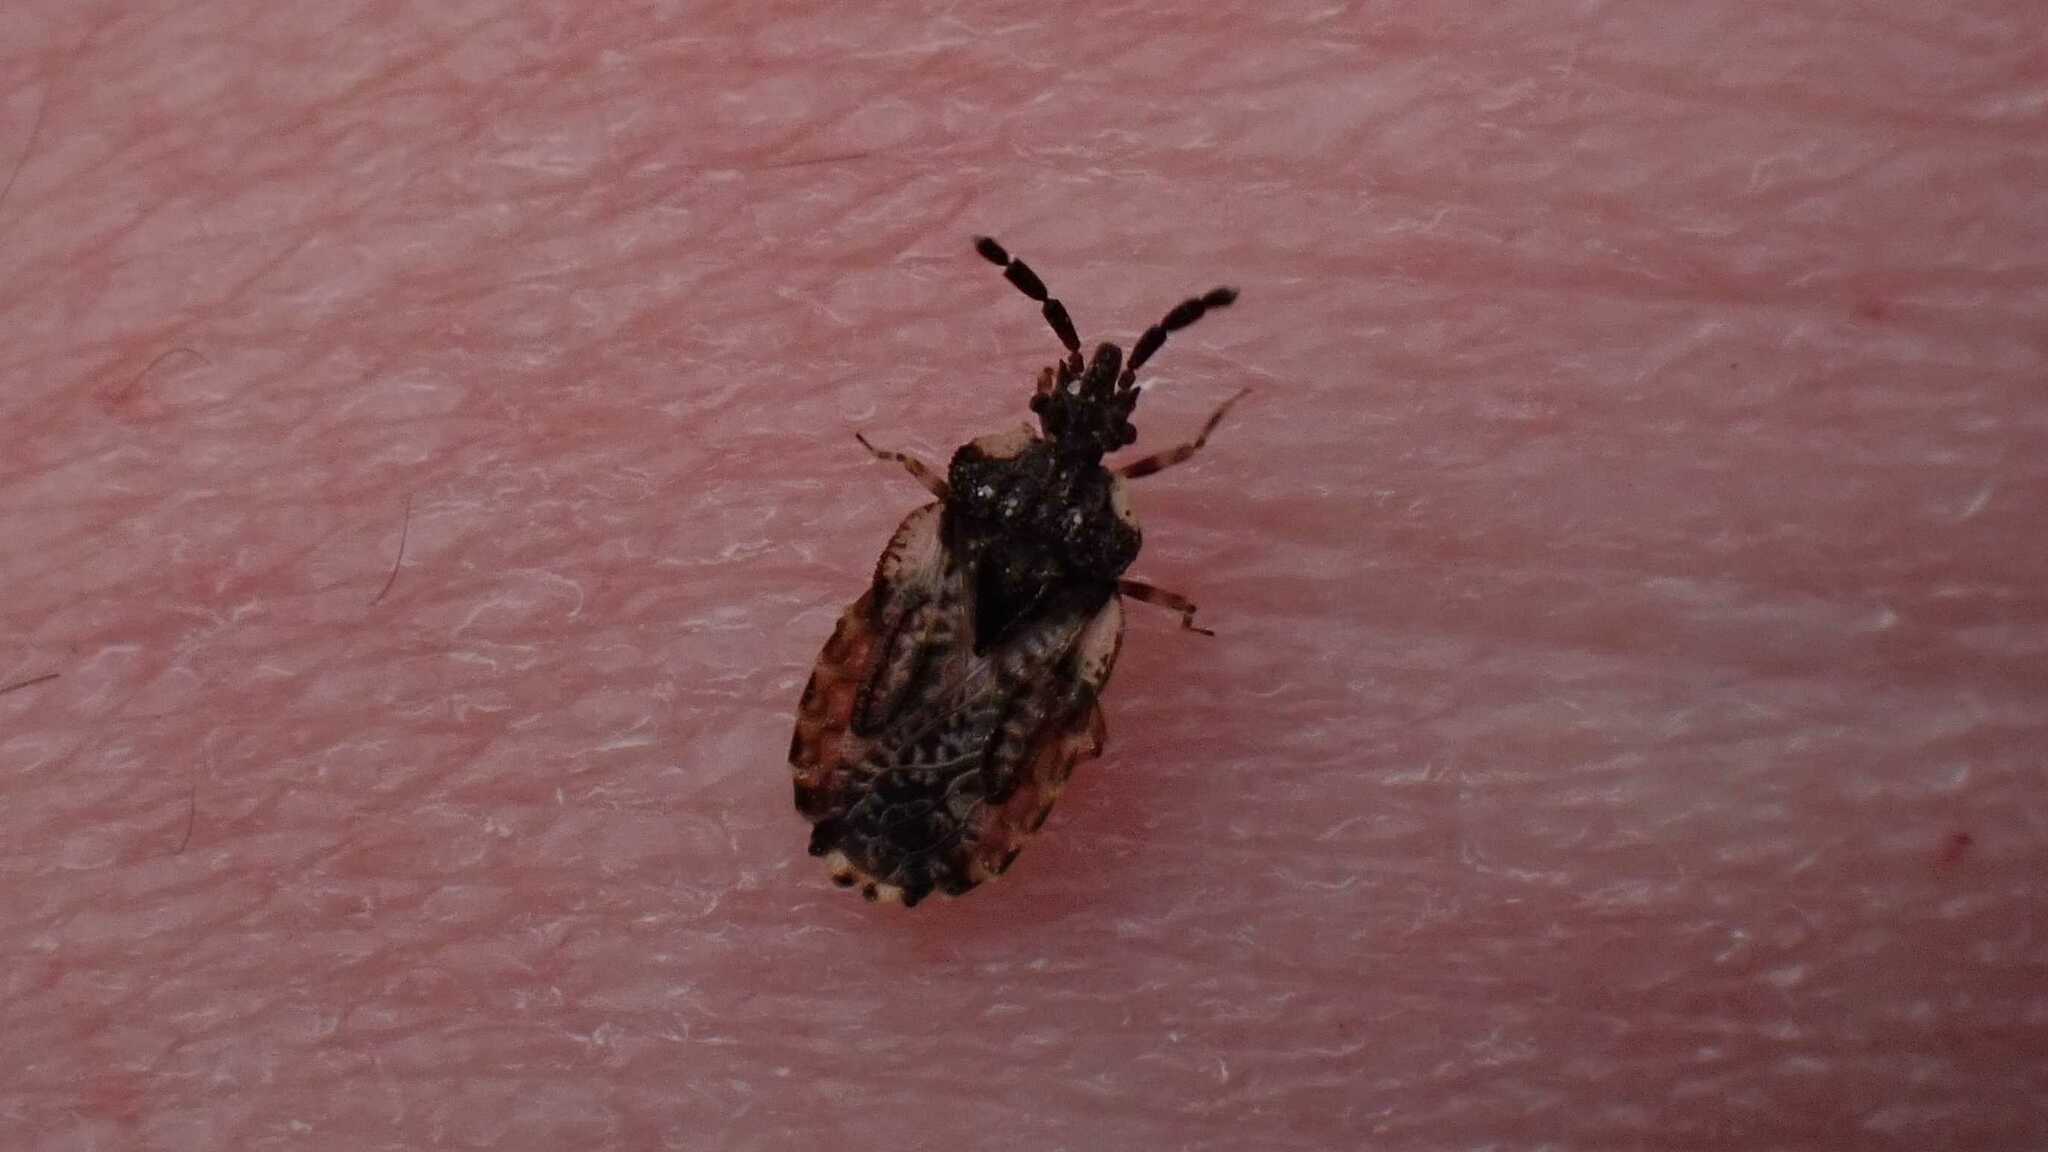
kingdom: Animalia
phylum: Arthropoda
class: Insecta
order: Hemiptera
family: Aradidae
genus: Aradus
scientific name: Aradus depressus
